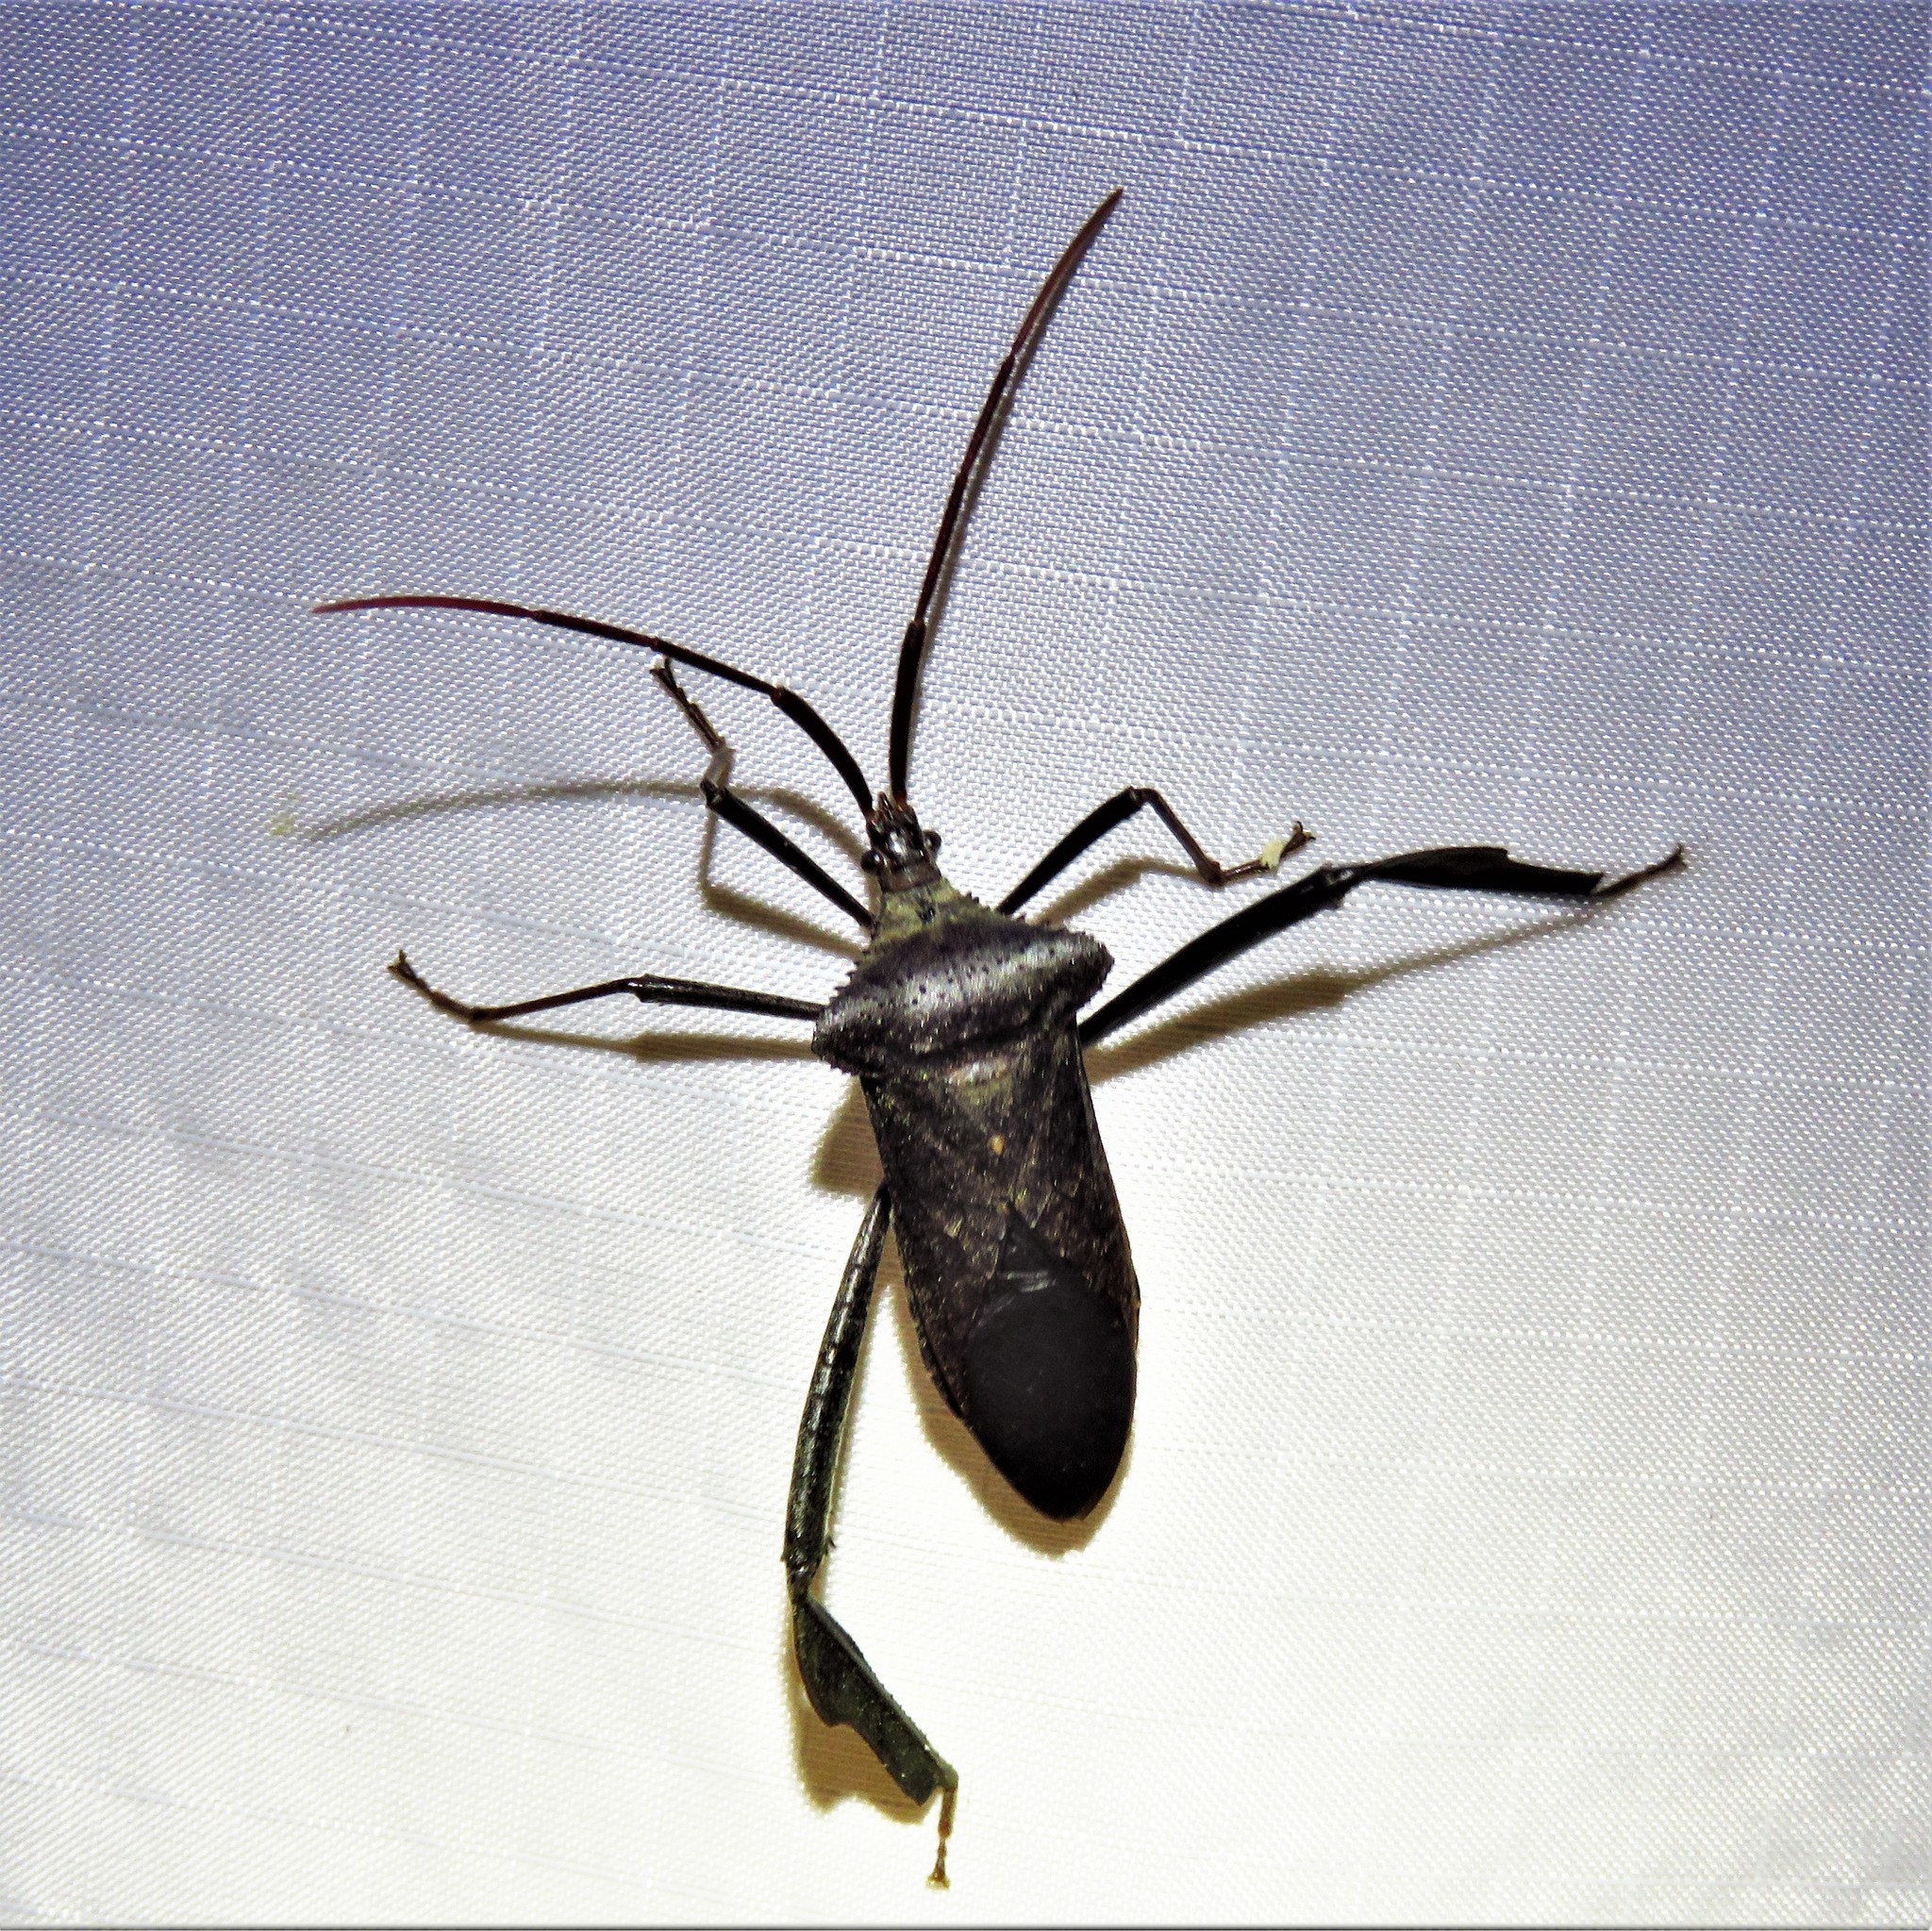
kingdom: Animalia
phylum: Arthropoda
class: Insecta
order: Hemiptera
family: Coreidae
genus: Acanthocephala
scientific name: Acanthocephala declivis
